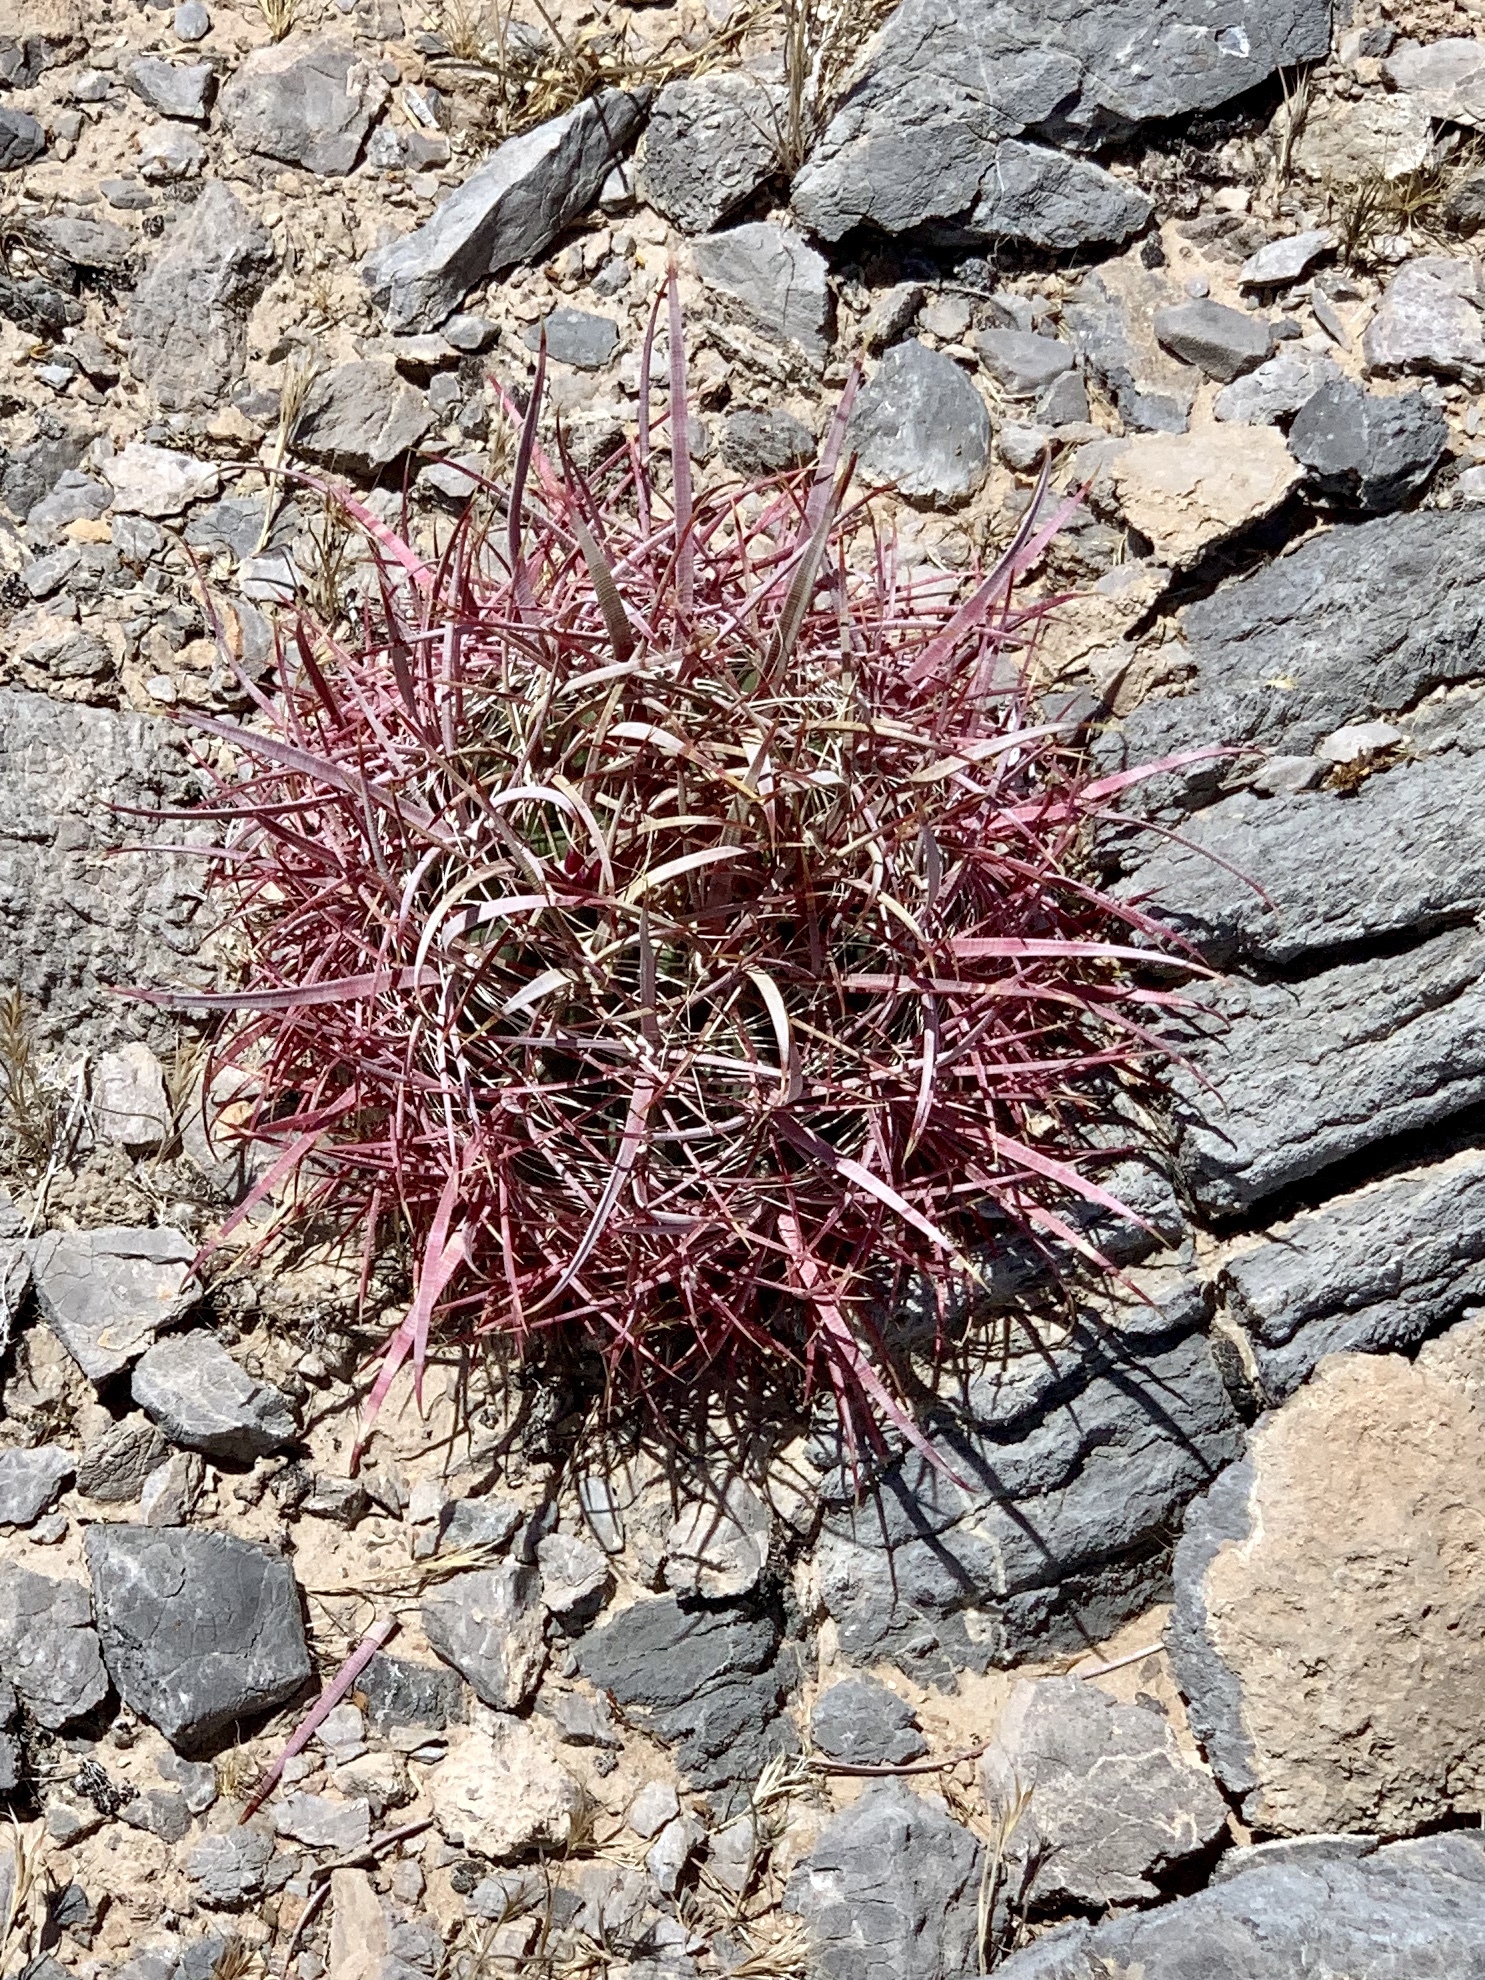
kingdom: Plantae
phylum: Tracheophyta
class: Magnoliopsida
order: Caryophyllales
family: Cactaceae
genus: Ferocactus
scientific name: Ferocactus cylindraceus
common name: California barrel cactus
